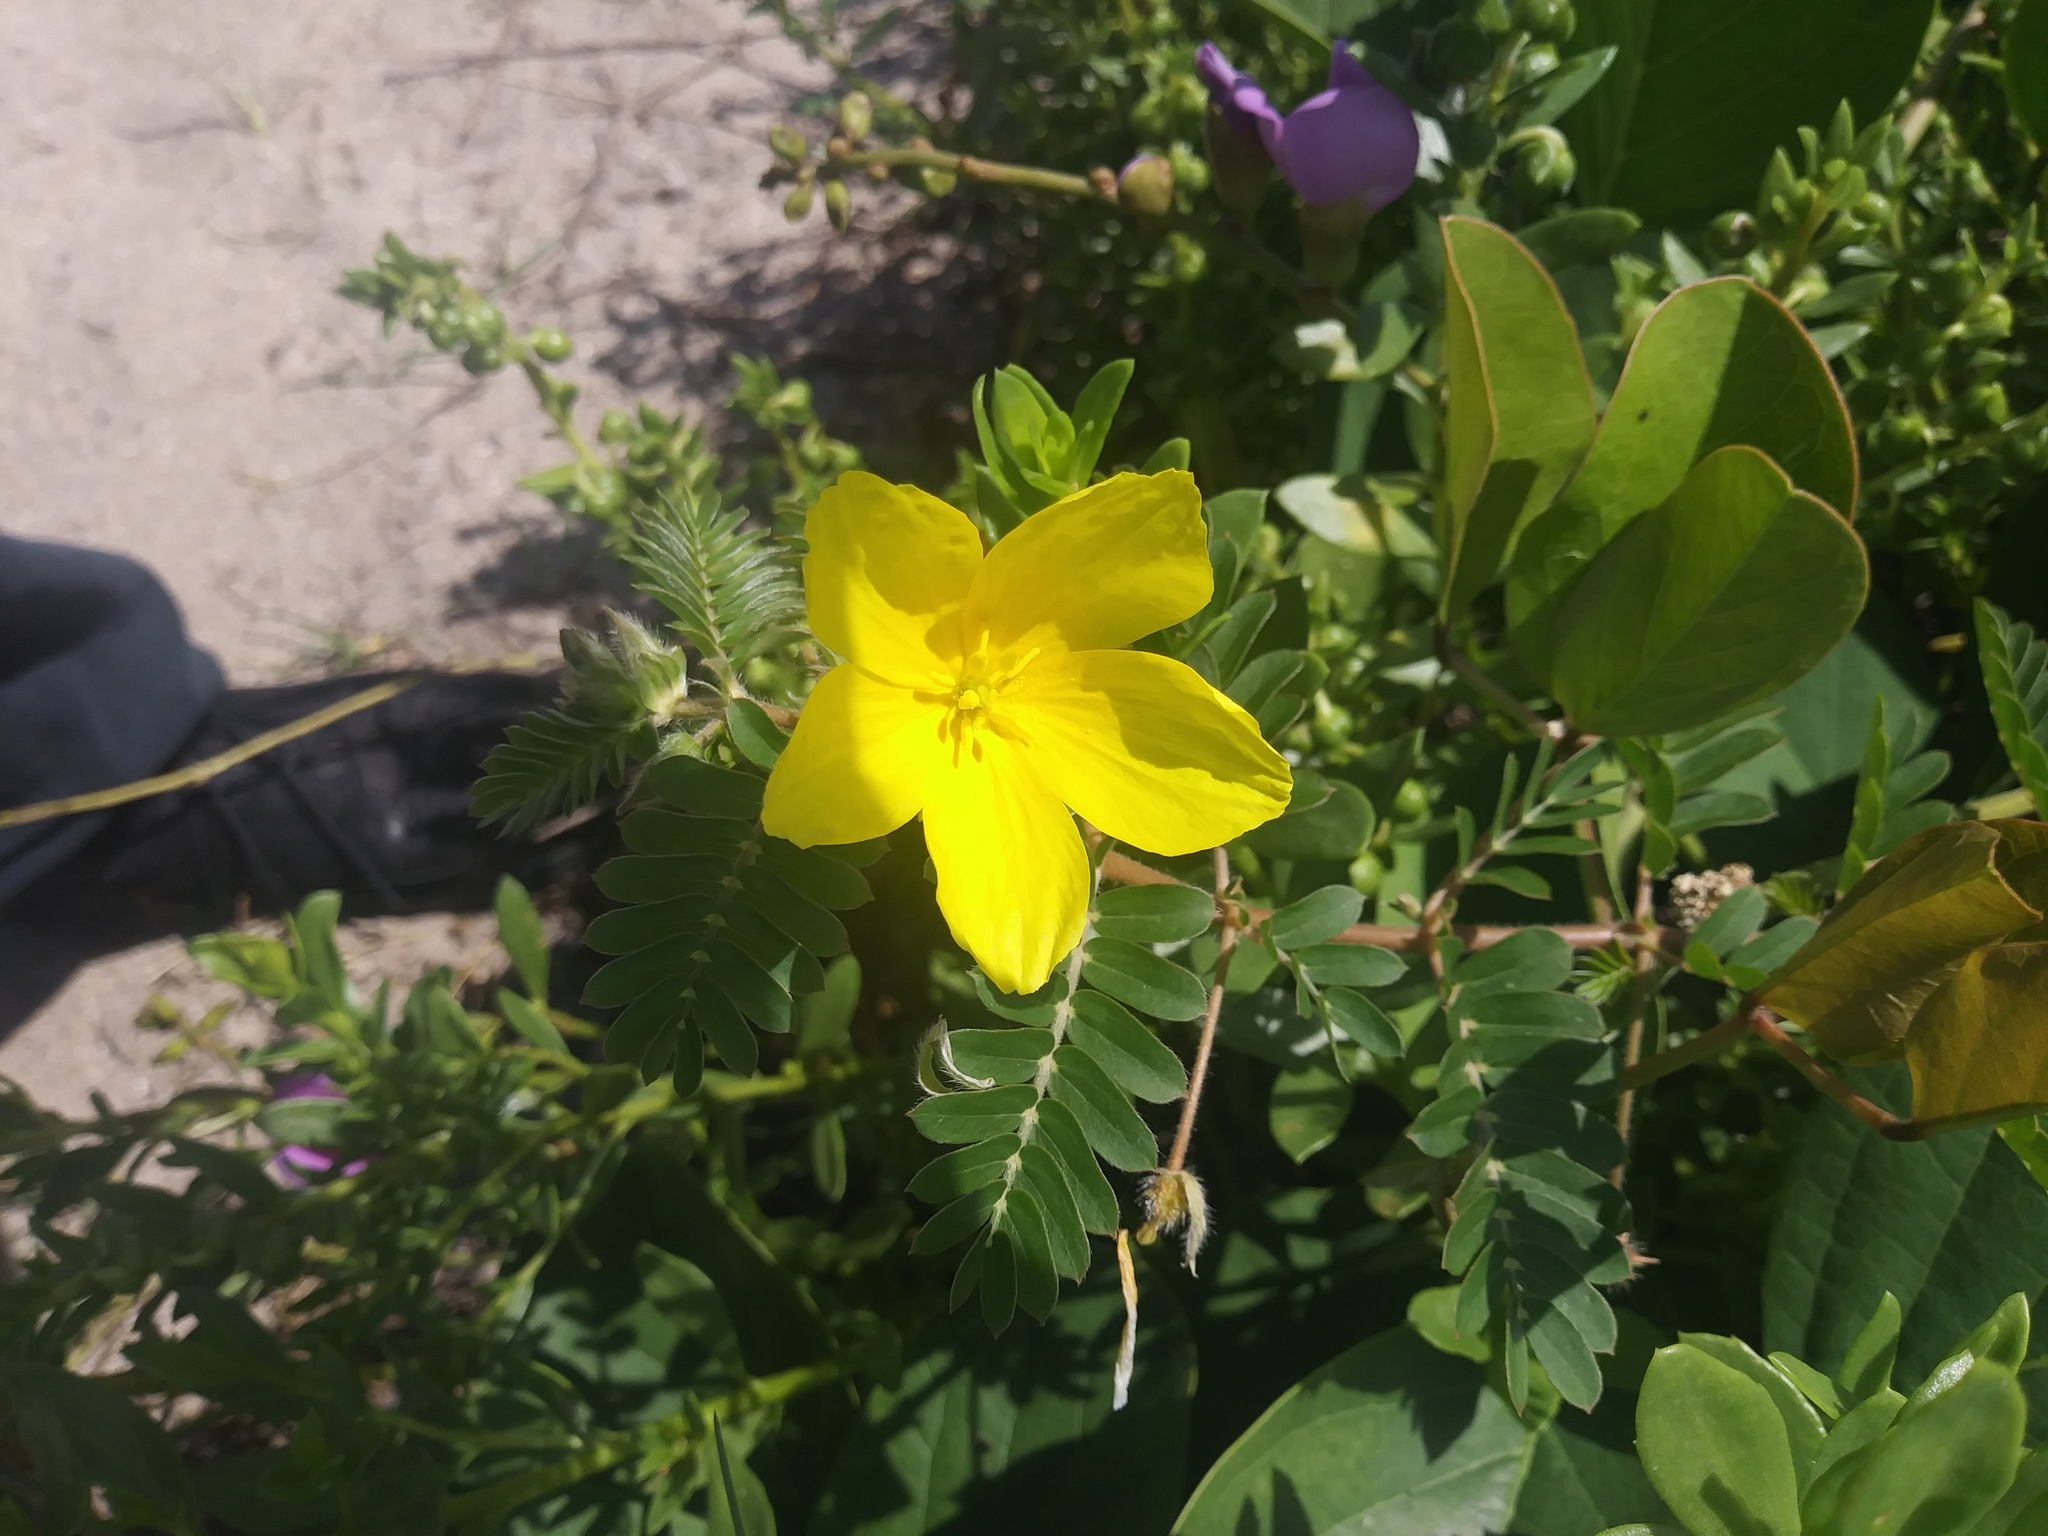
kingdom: Plantae
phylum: Tracheophyta
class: Magnoliopsida
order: Zygophyllales
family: Zygophyllaceae
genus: Tribulus
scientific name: Tribulus cistoides
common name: Jamaican feverplant
